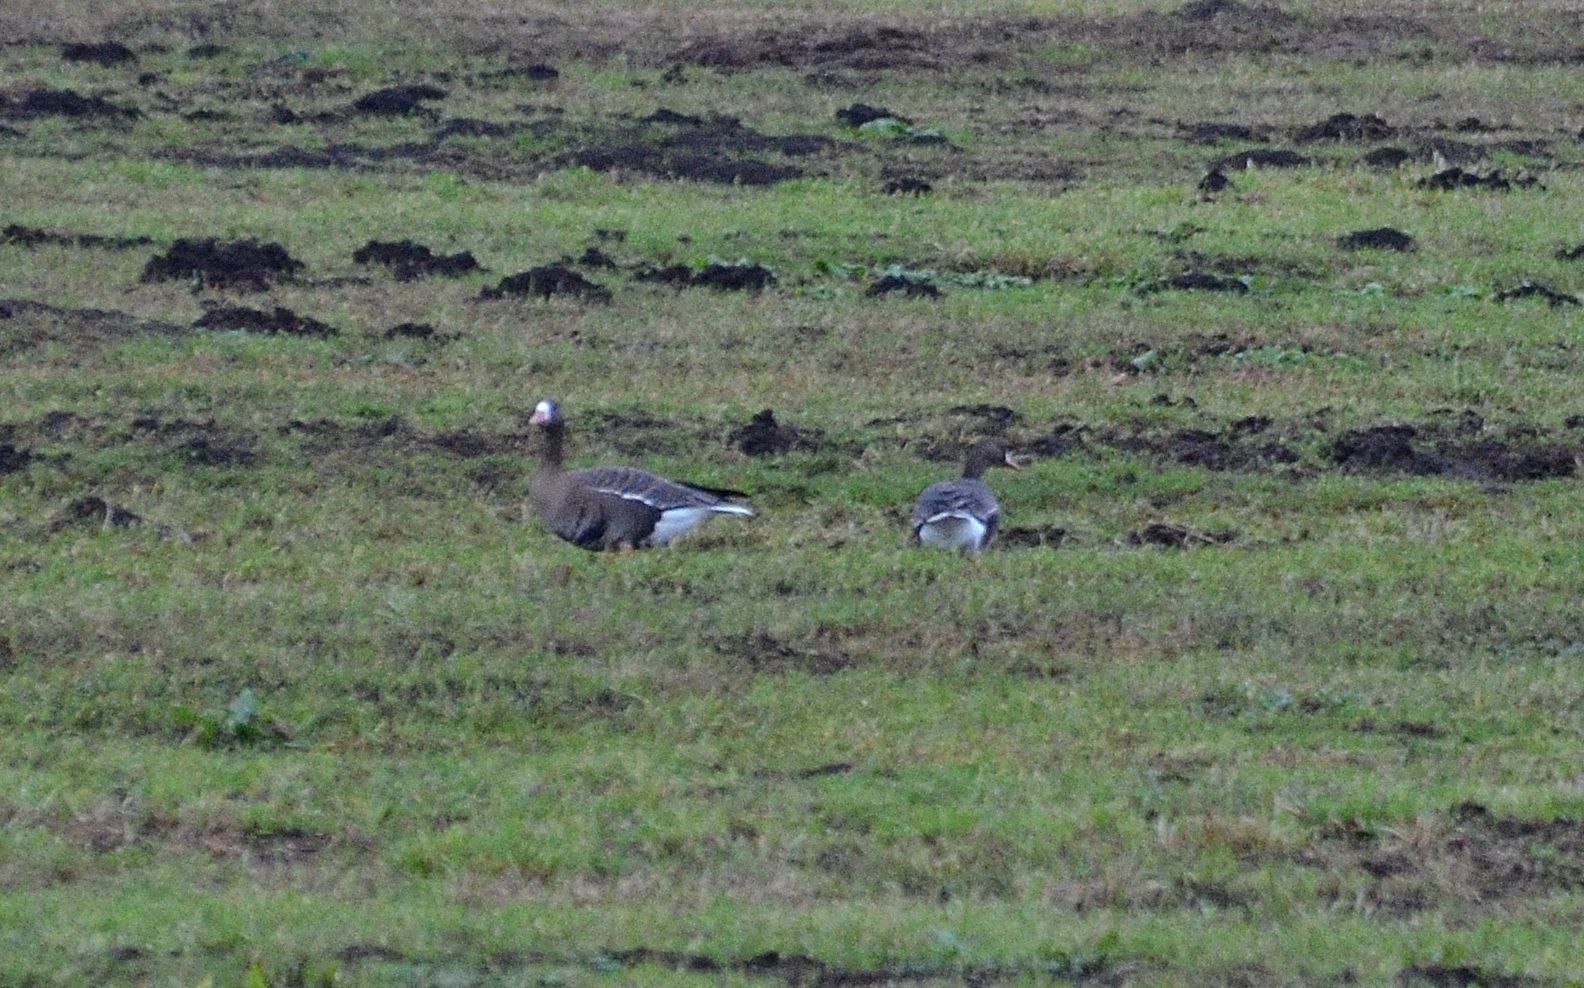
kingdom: Animalia
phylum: Chordata
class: Aves
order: Anseriformes
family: Anatidae
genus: Anser
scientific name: Anser albifrons
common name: Greater white-fronted goose
